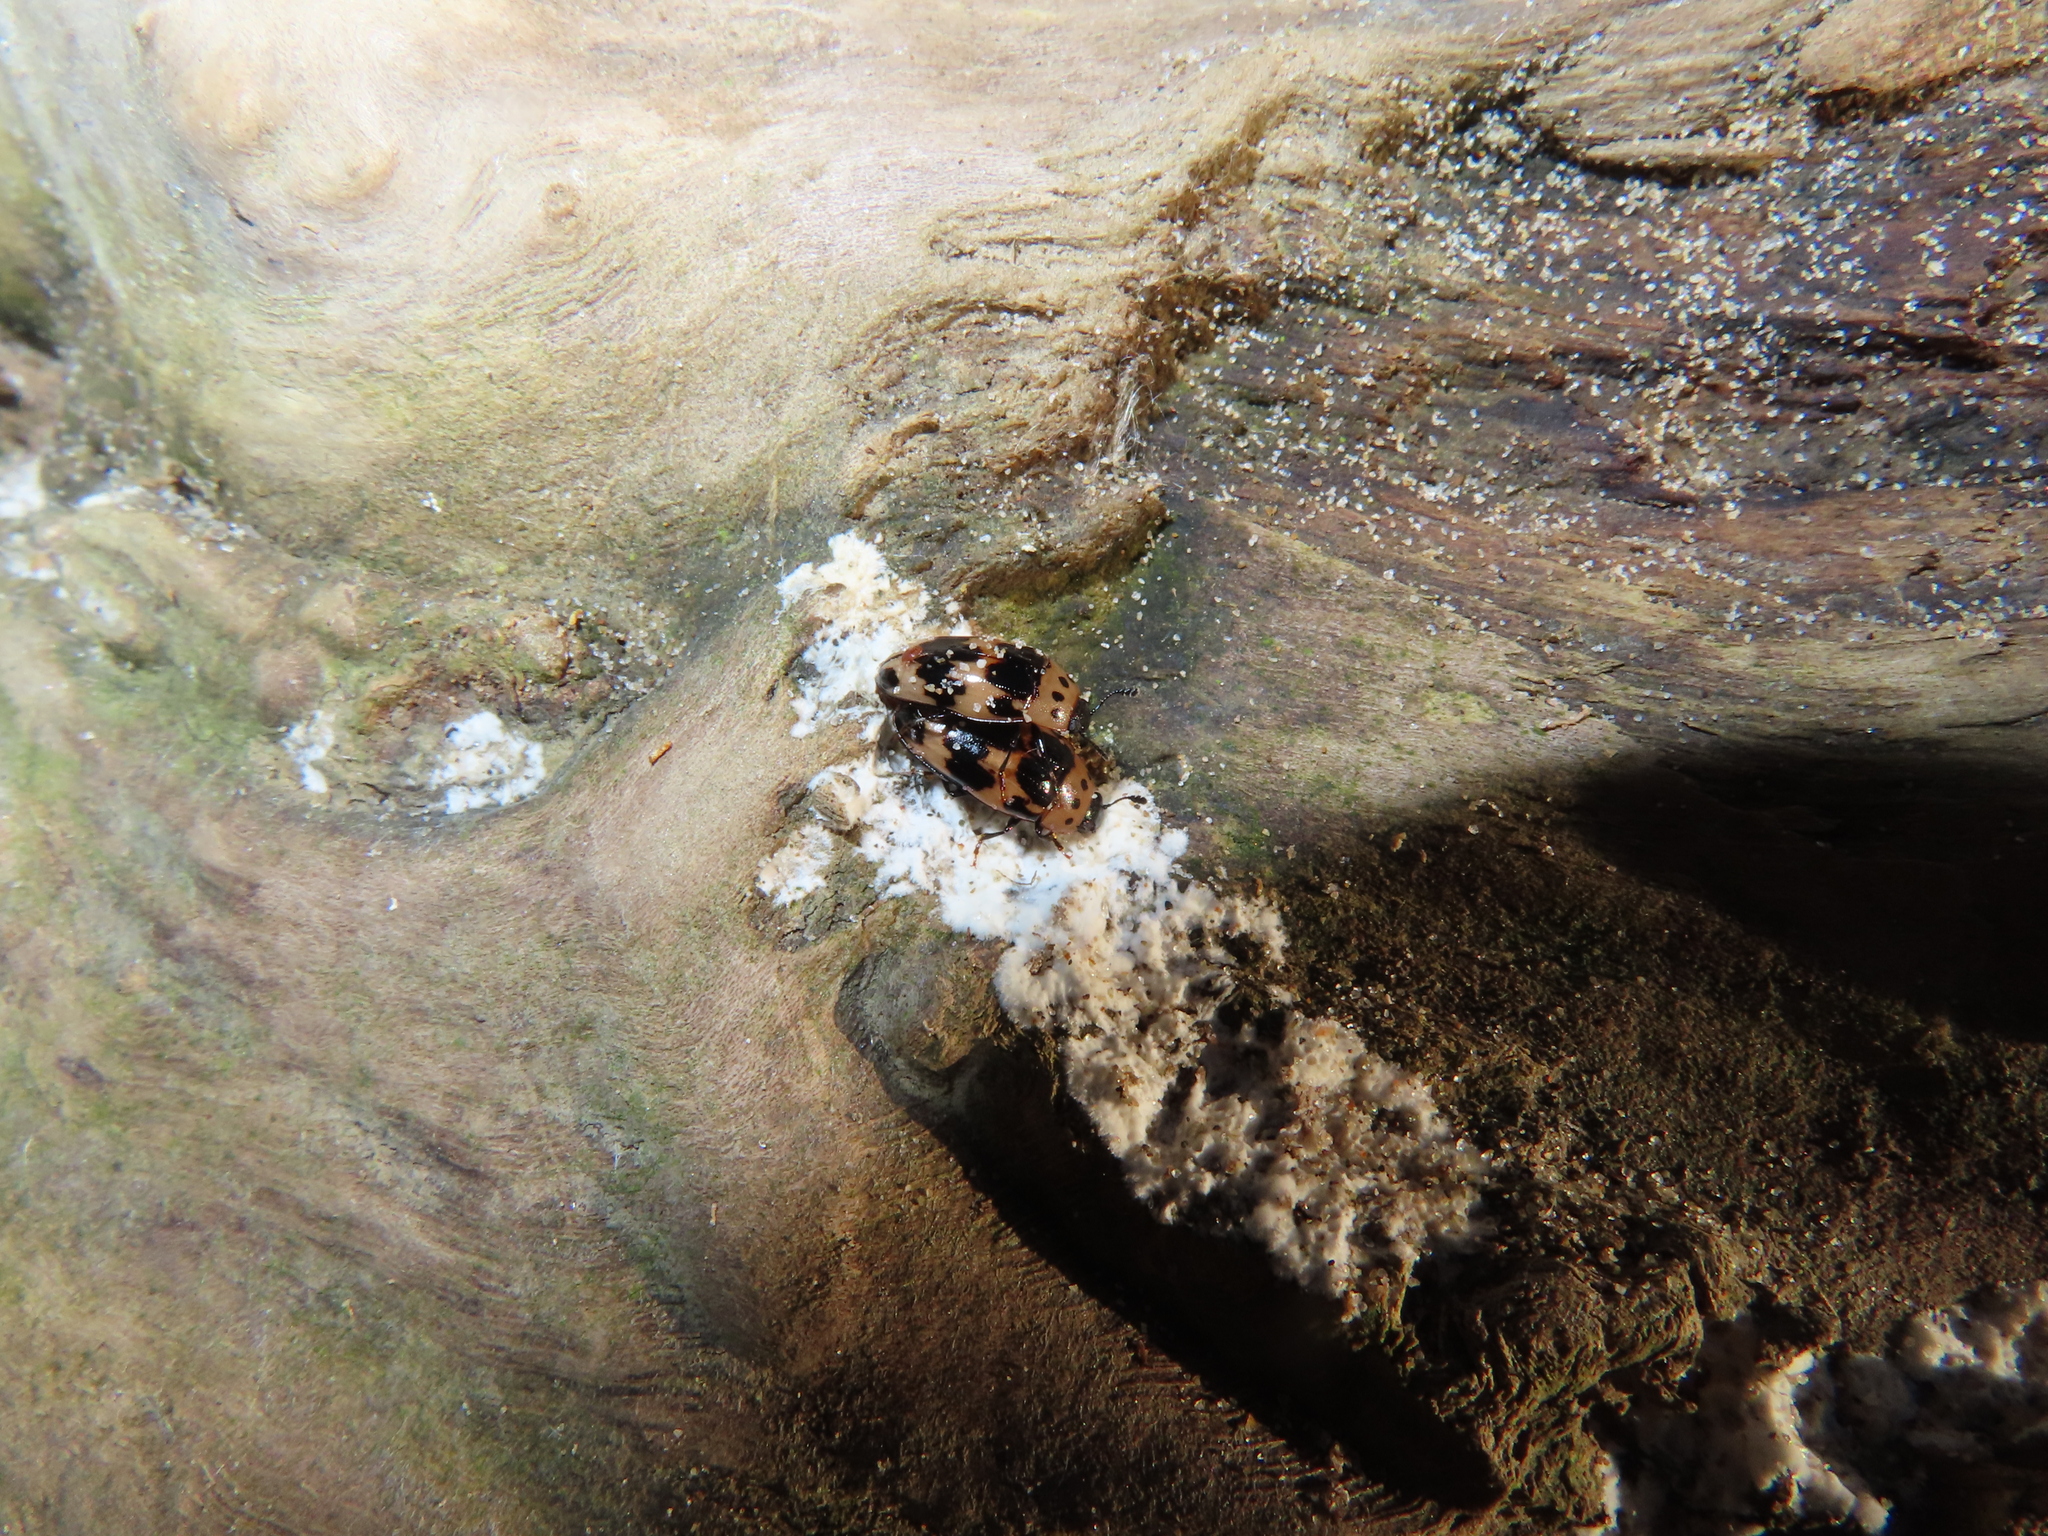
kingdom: Animalia
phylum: Arthropoda
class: Insecta
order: Coleoptera
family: Erotylidae
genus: Ischyrus
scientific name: Ischyrus quadripunctatus
